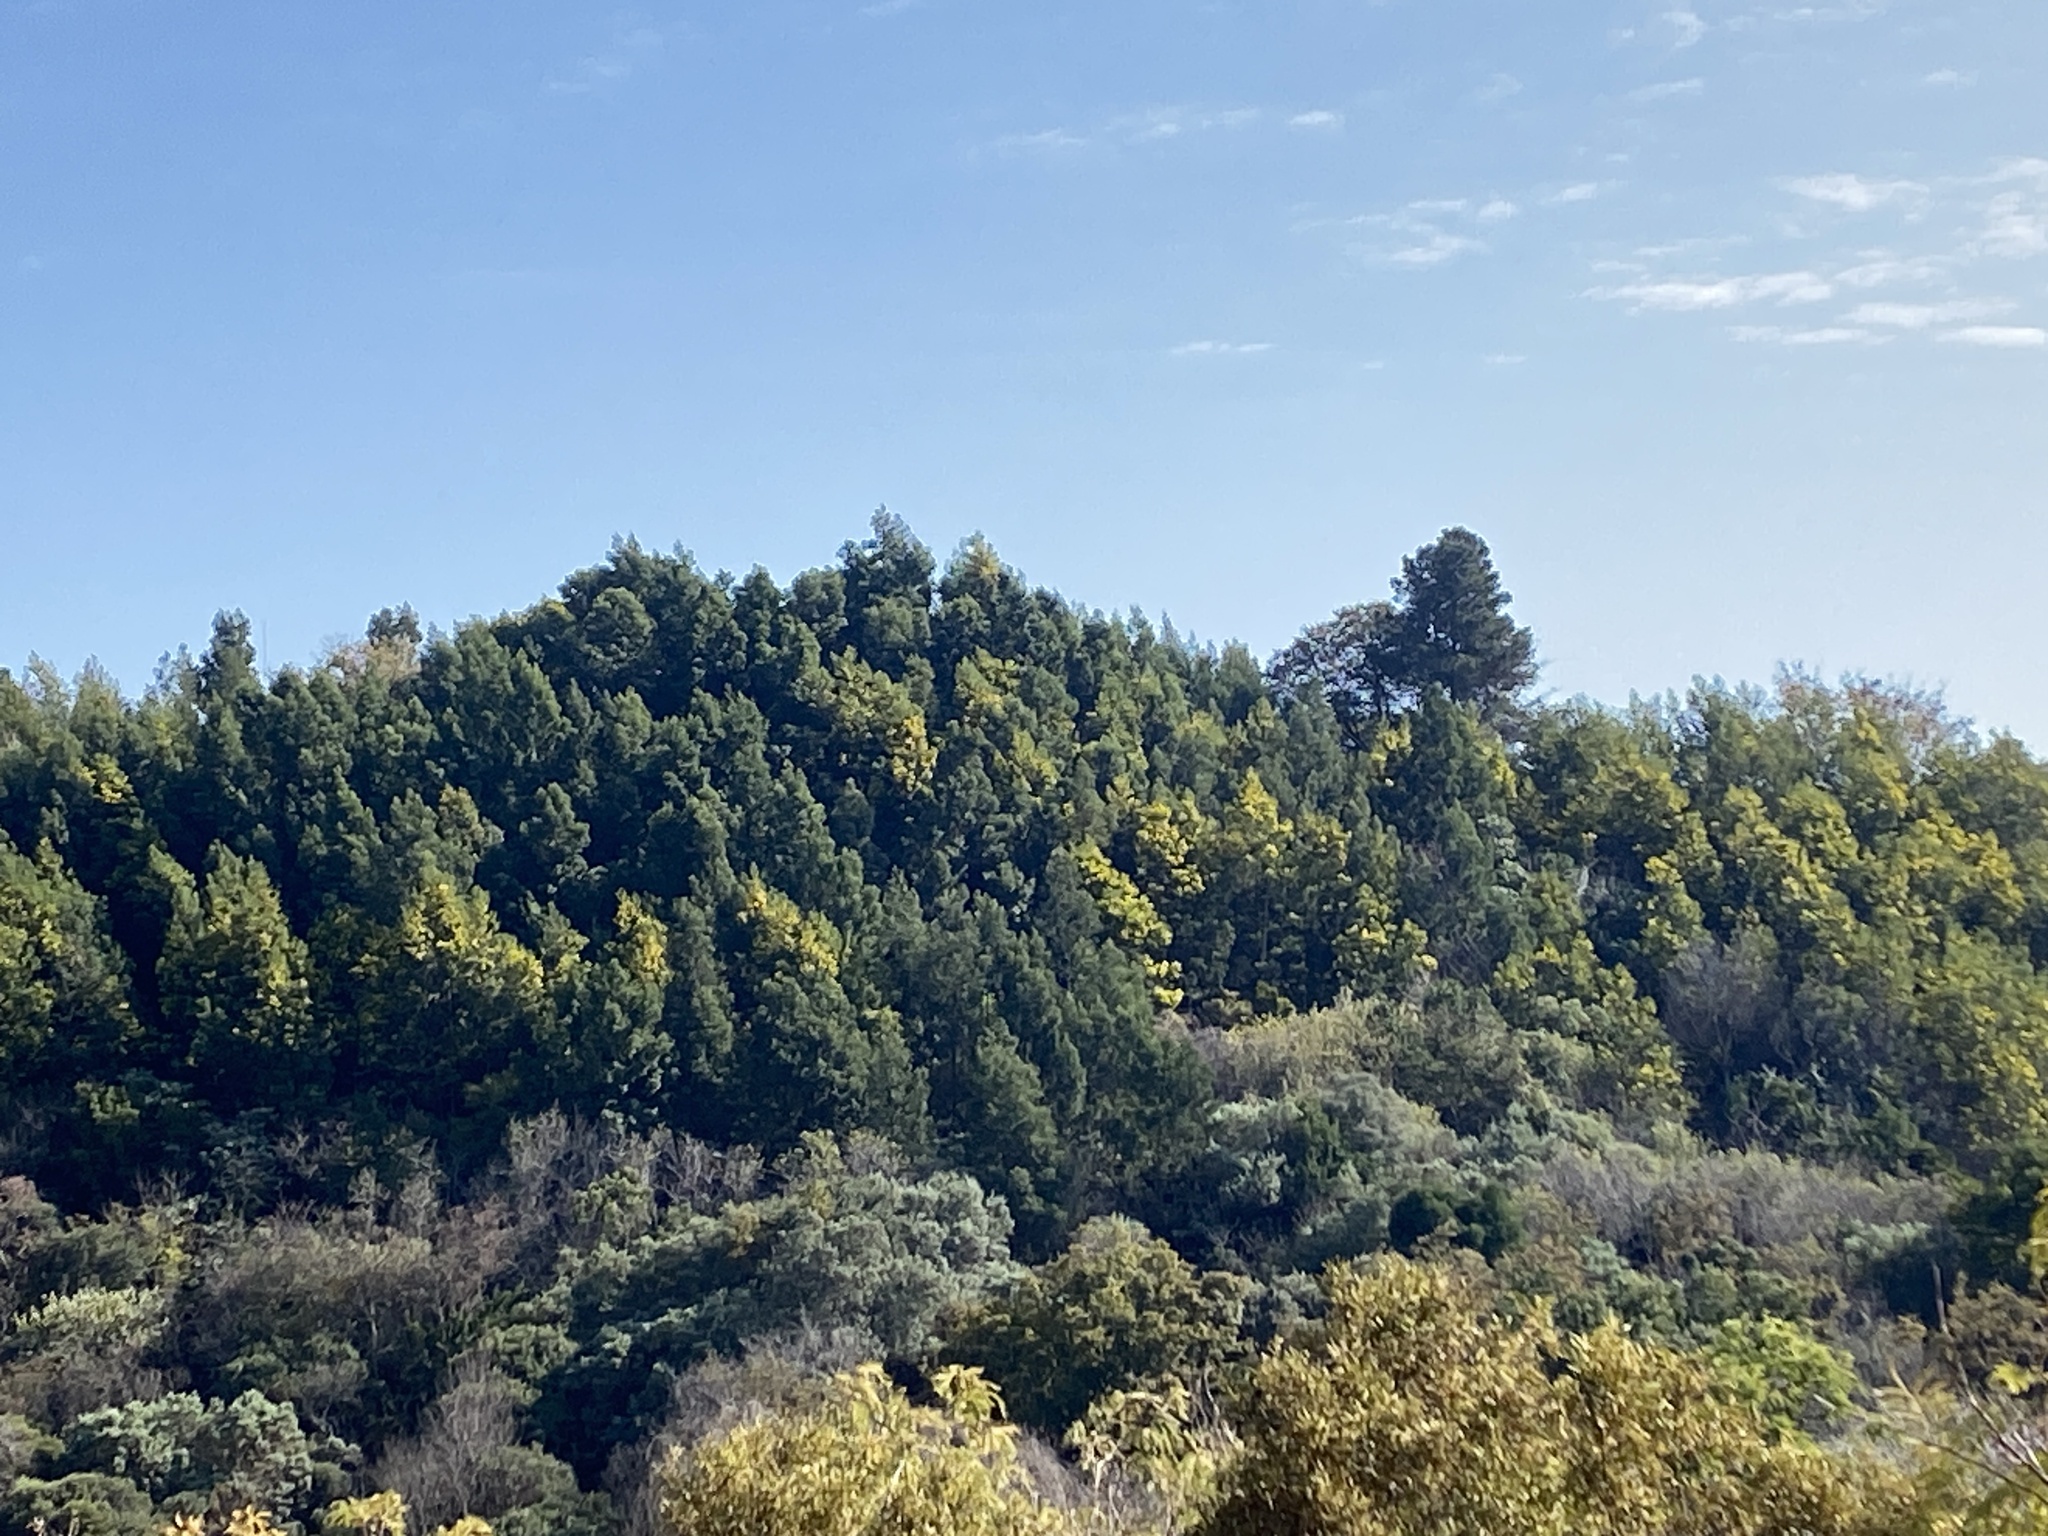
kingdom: Plantae
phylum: Tracheophyta
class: Magnoliopsida
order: Fabales
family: Fabaceae
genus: Acacia
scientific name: Acacia mearnsii
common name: Black wattle
